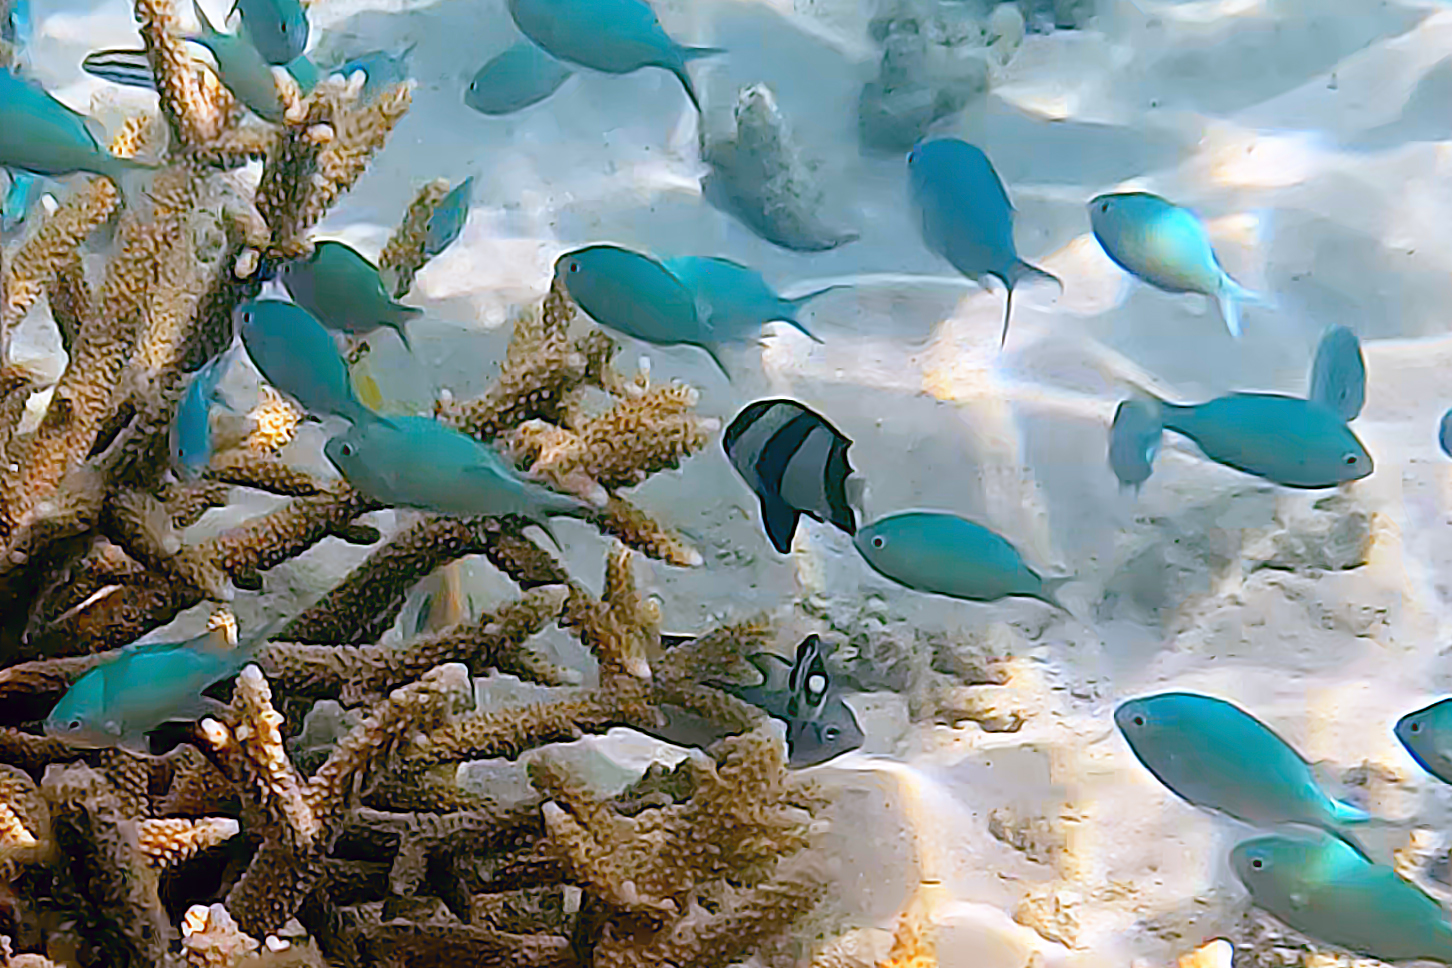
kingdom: Animalia
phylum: Chordata
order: Perciformes
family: Pomacentridae
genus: Dascyllus
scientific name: Dascyllus aruanus
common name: Humbug dascyllus
